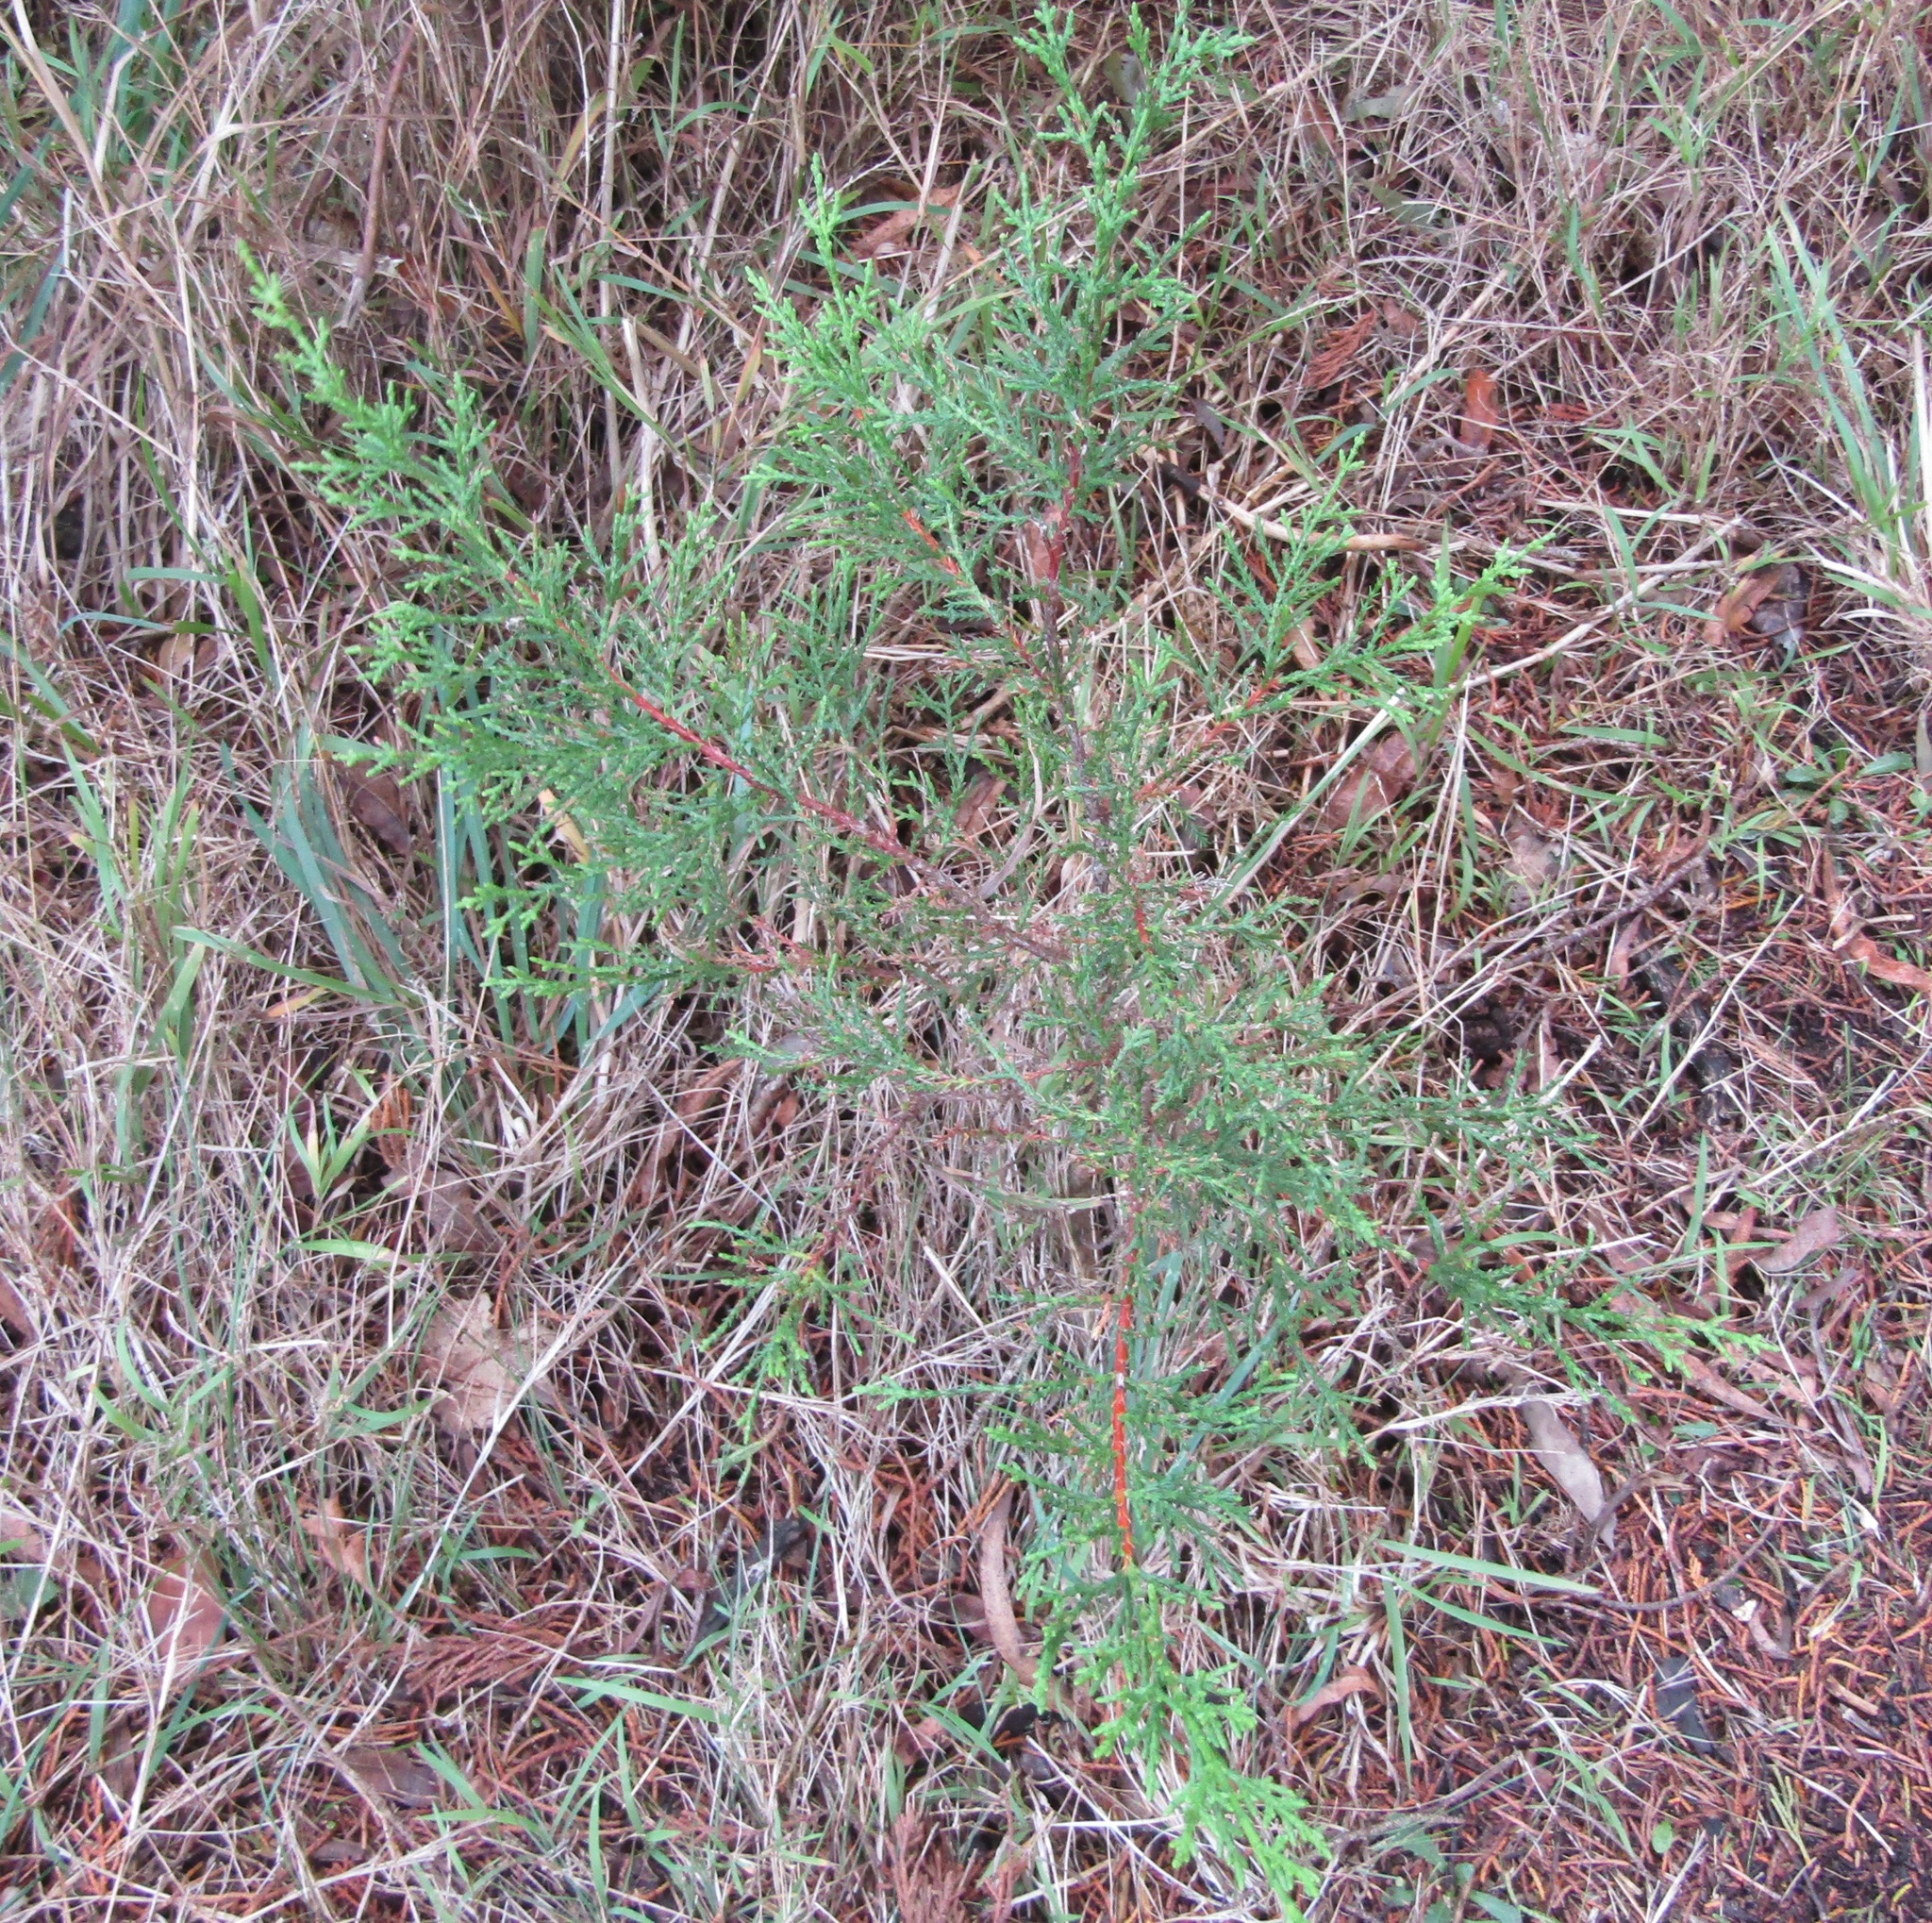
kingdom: Plantae
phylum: Tracheophyta
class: Pinopsida
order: Pinales
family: Cupressaceae
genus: Cupressus
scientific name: Cupressus macrocarpa
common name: Monterey cypress
